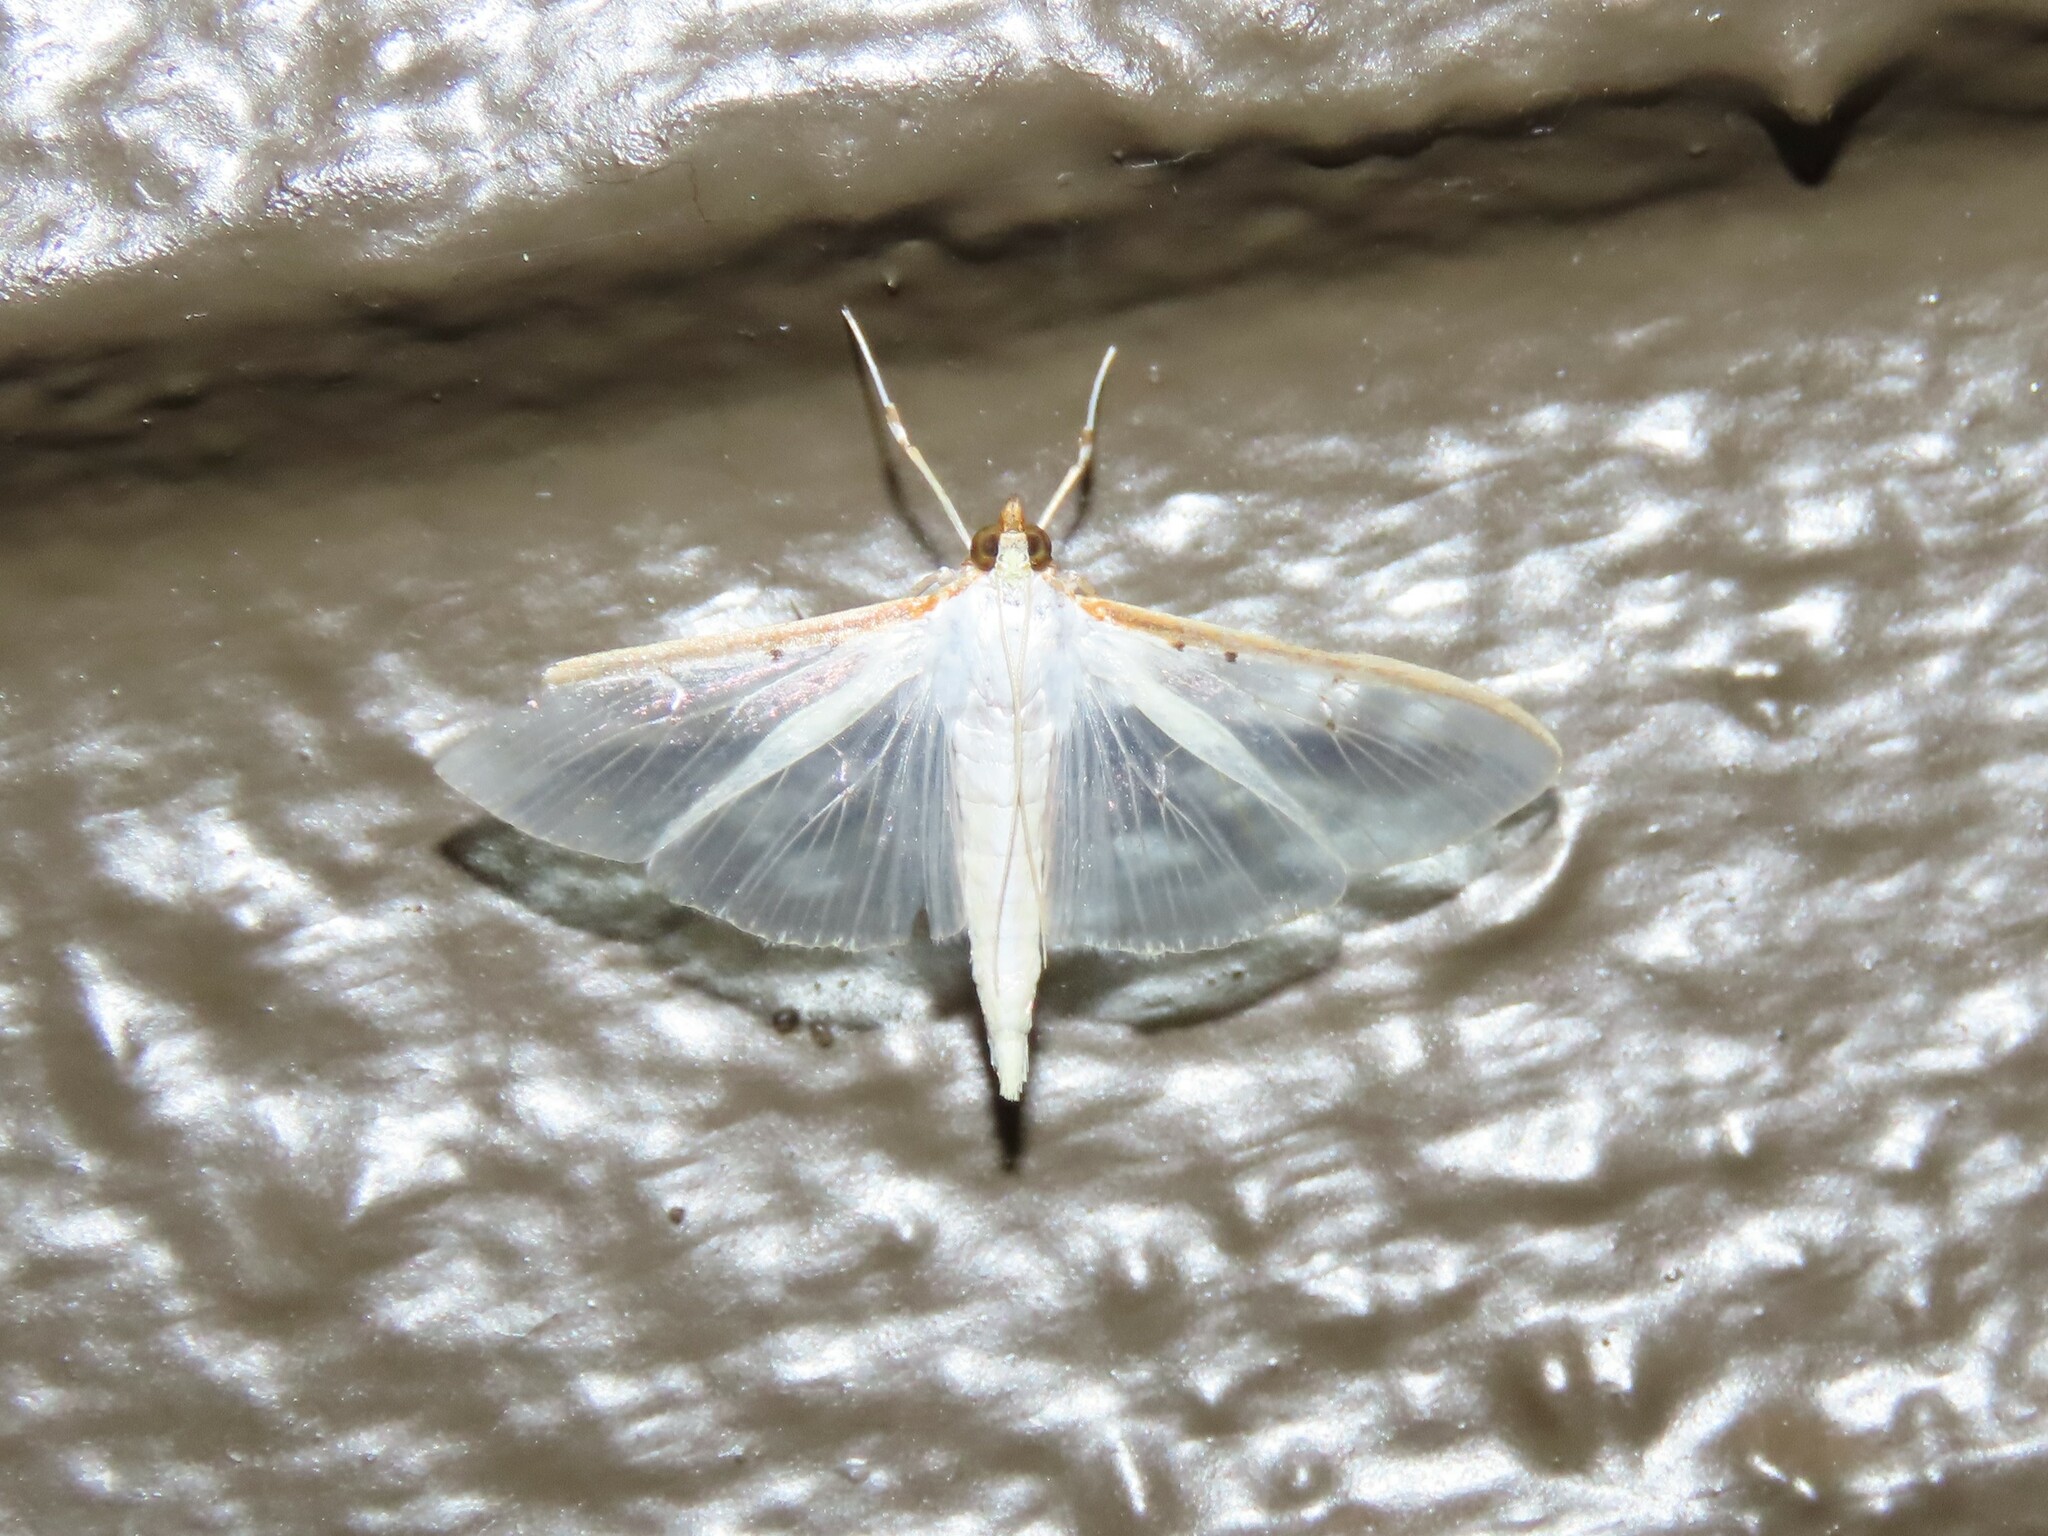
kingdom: Animalia
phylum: Arthropoda
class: Insecta
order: Lepidoptera
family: Crambidae
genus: Palpita
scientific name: Palpita quadristigmalis
